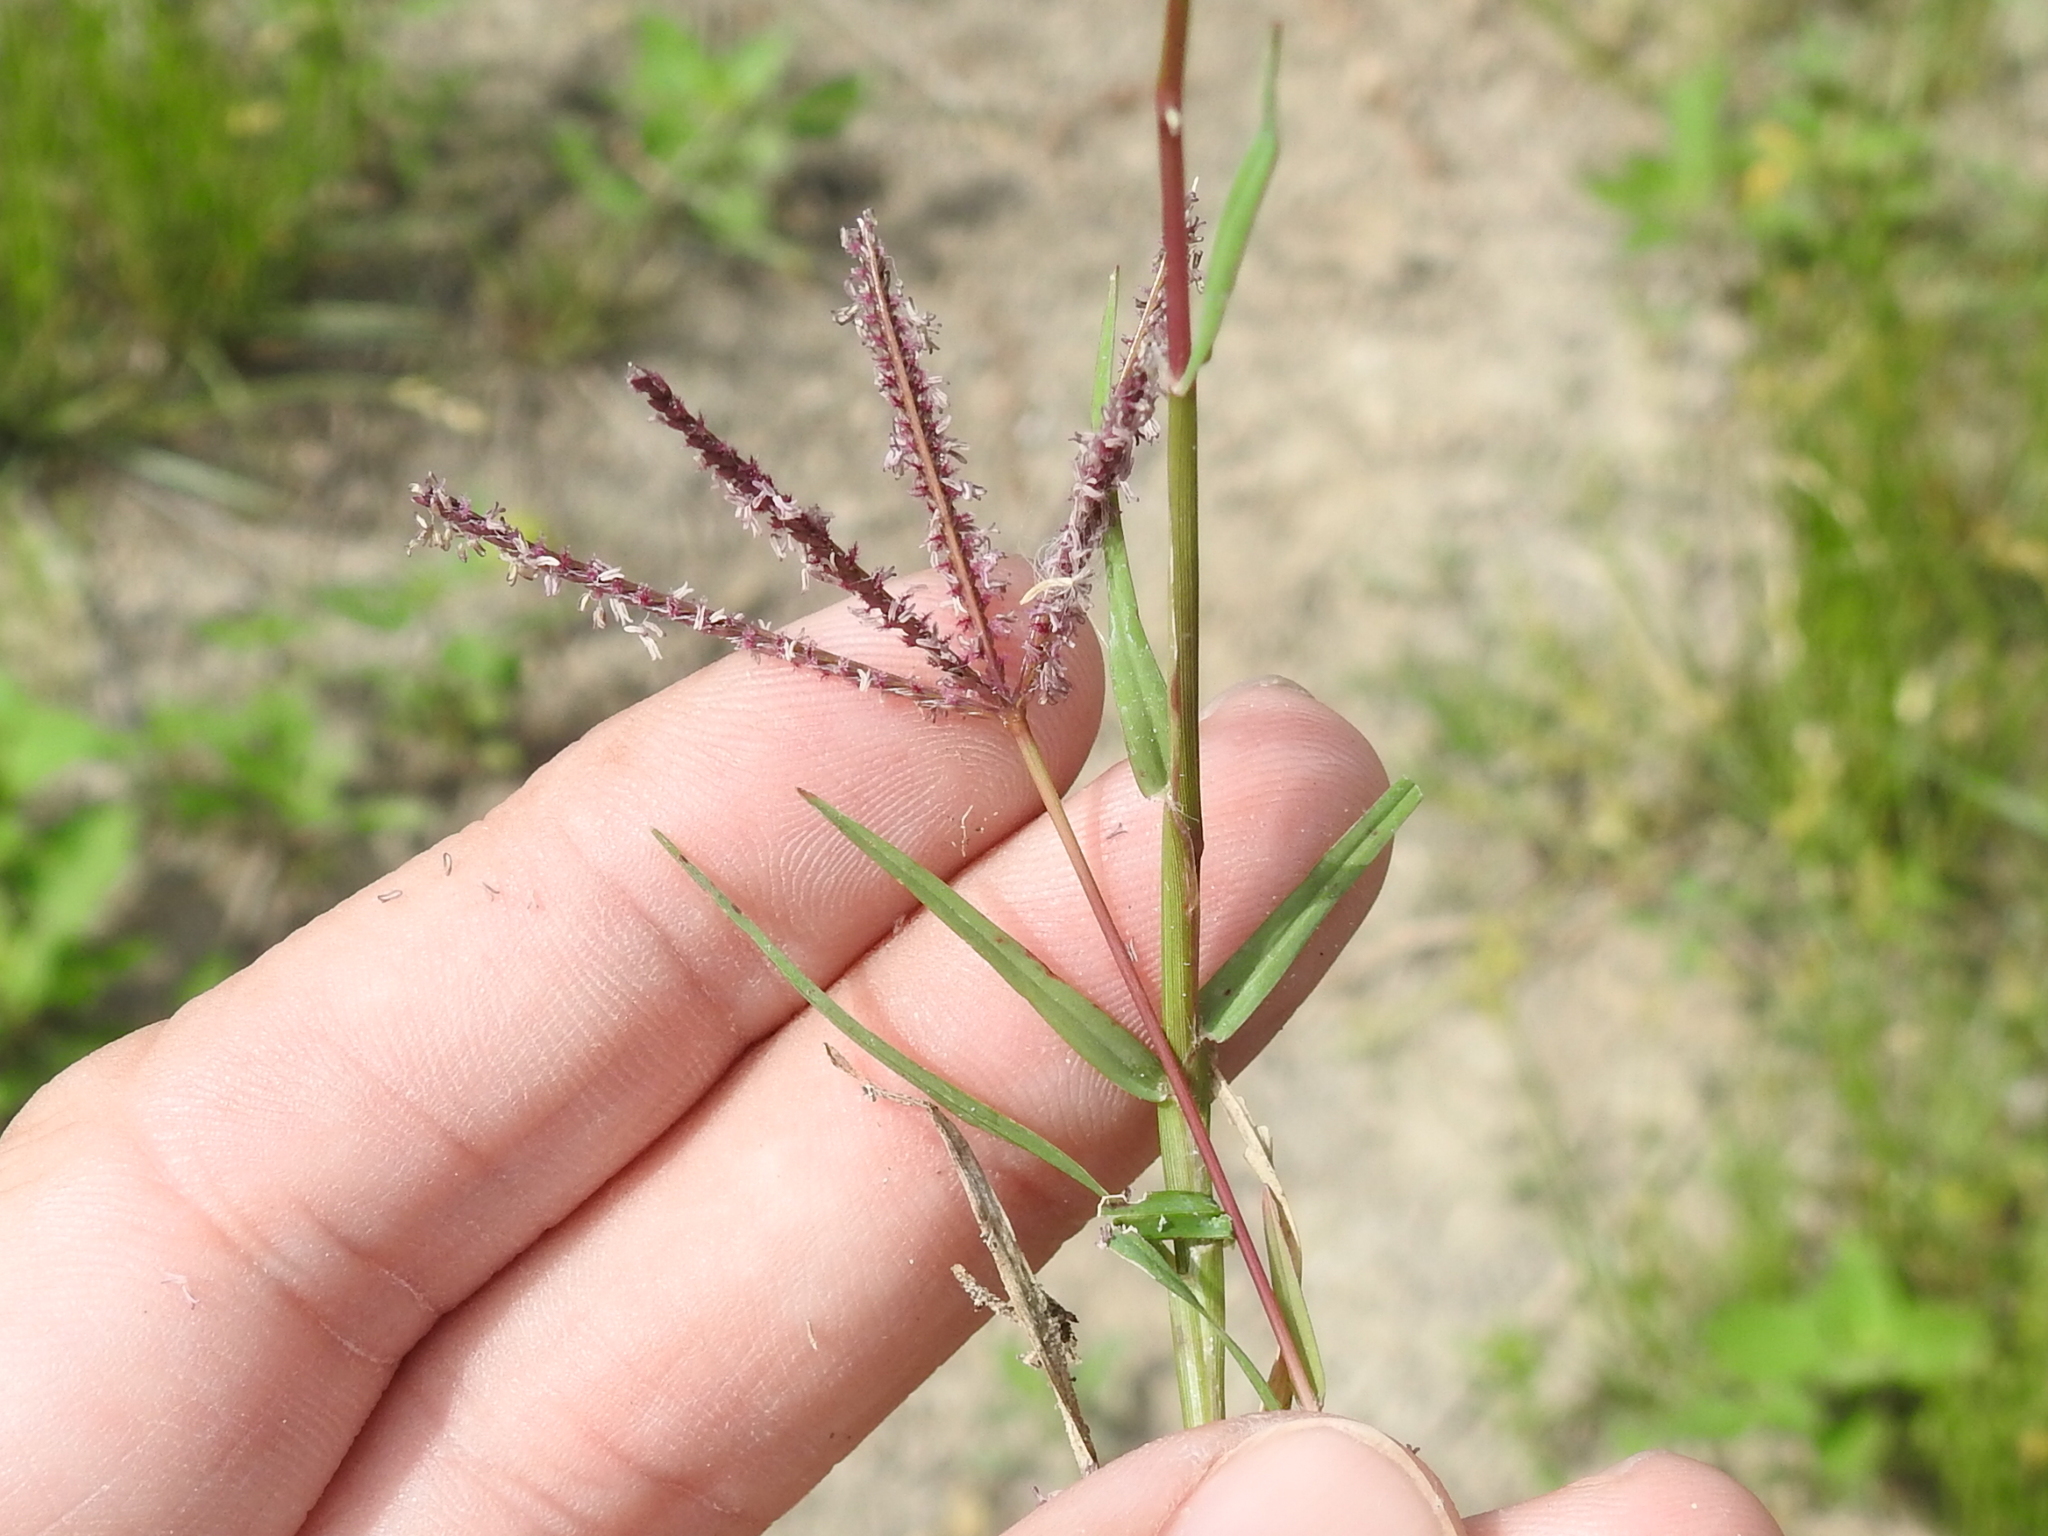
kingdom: Plantae
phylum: Tracheophyta
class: Liliopsida
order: Poales
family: Poaceae
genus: Cynodon
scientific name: Cynodon dactylon
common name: Bermuda grass
